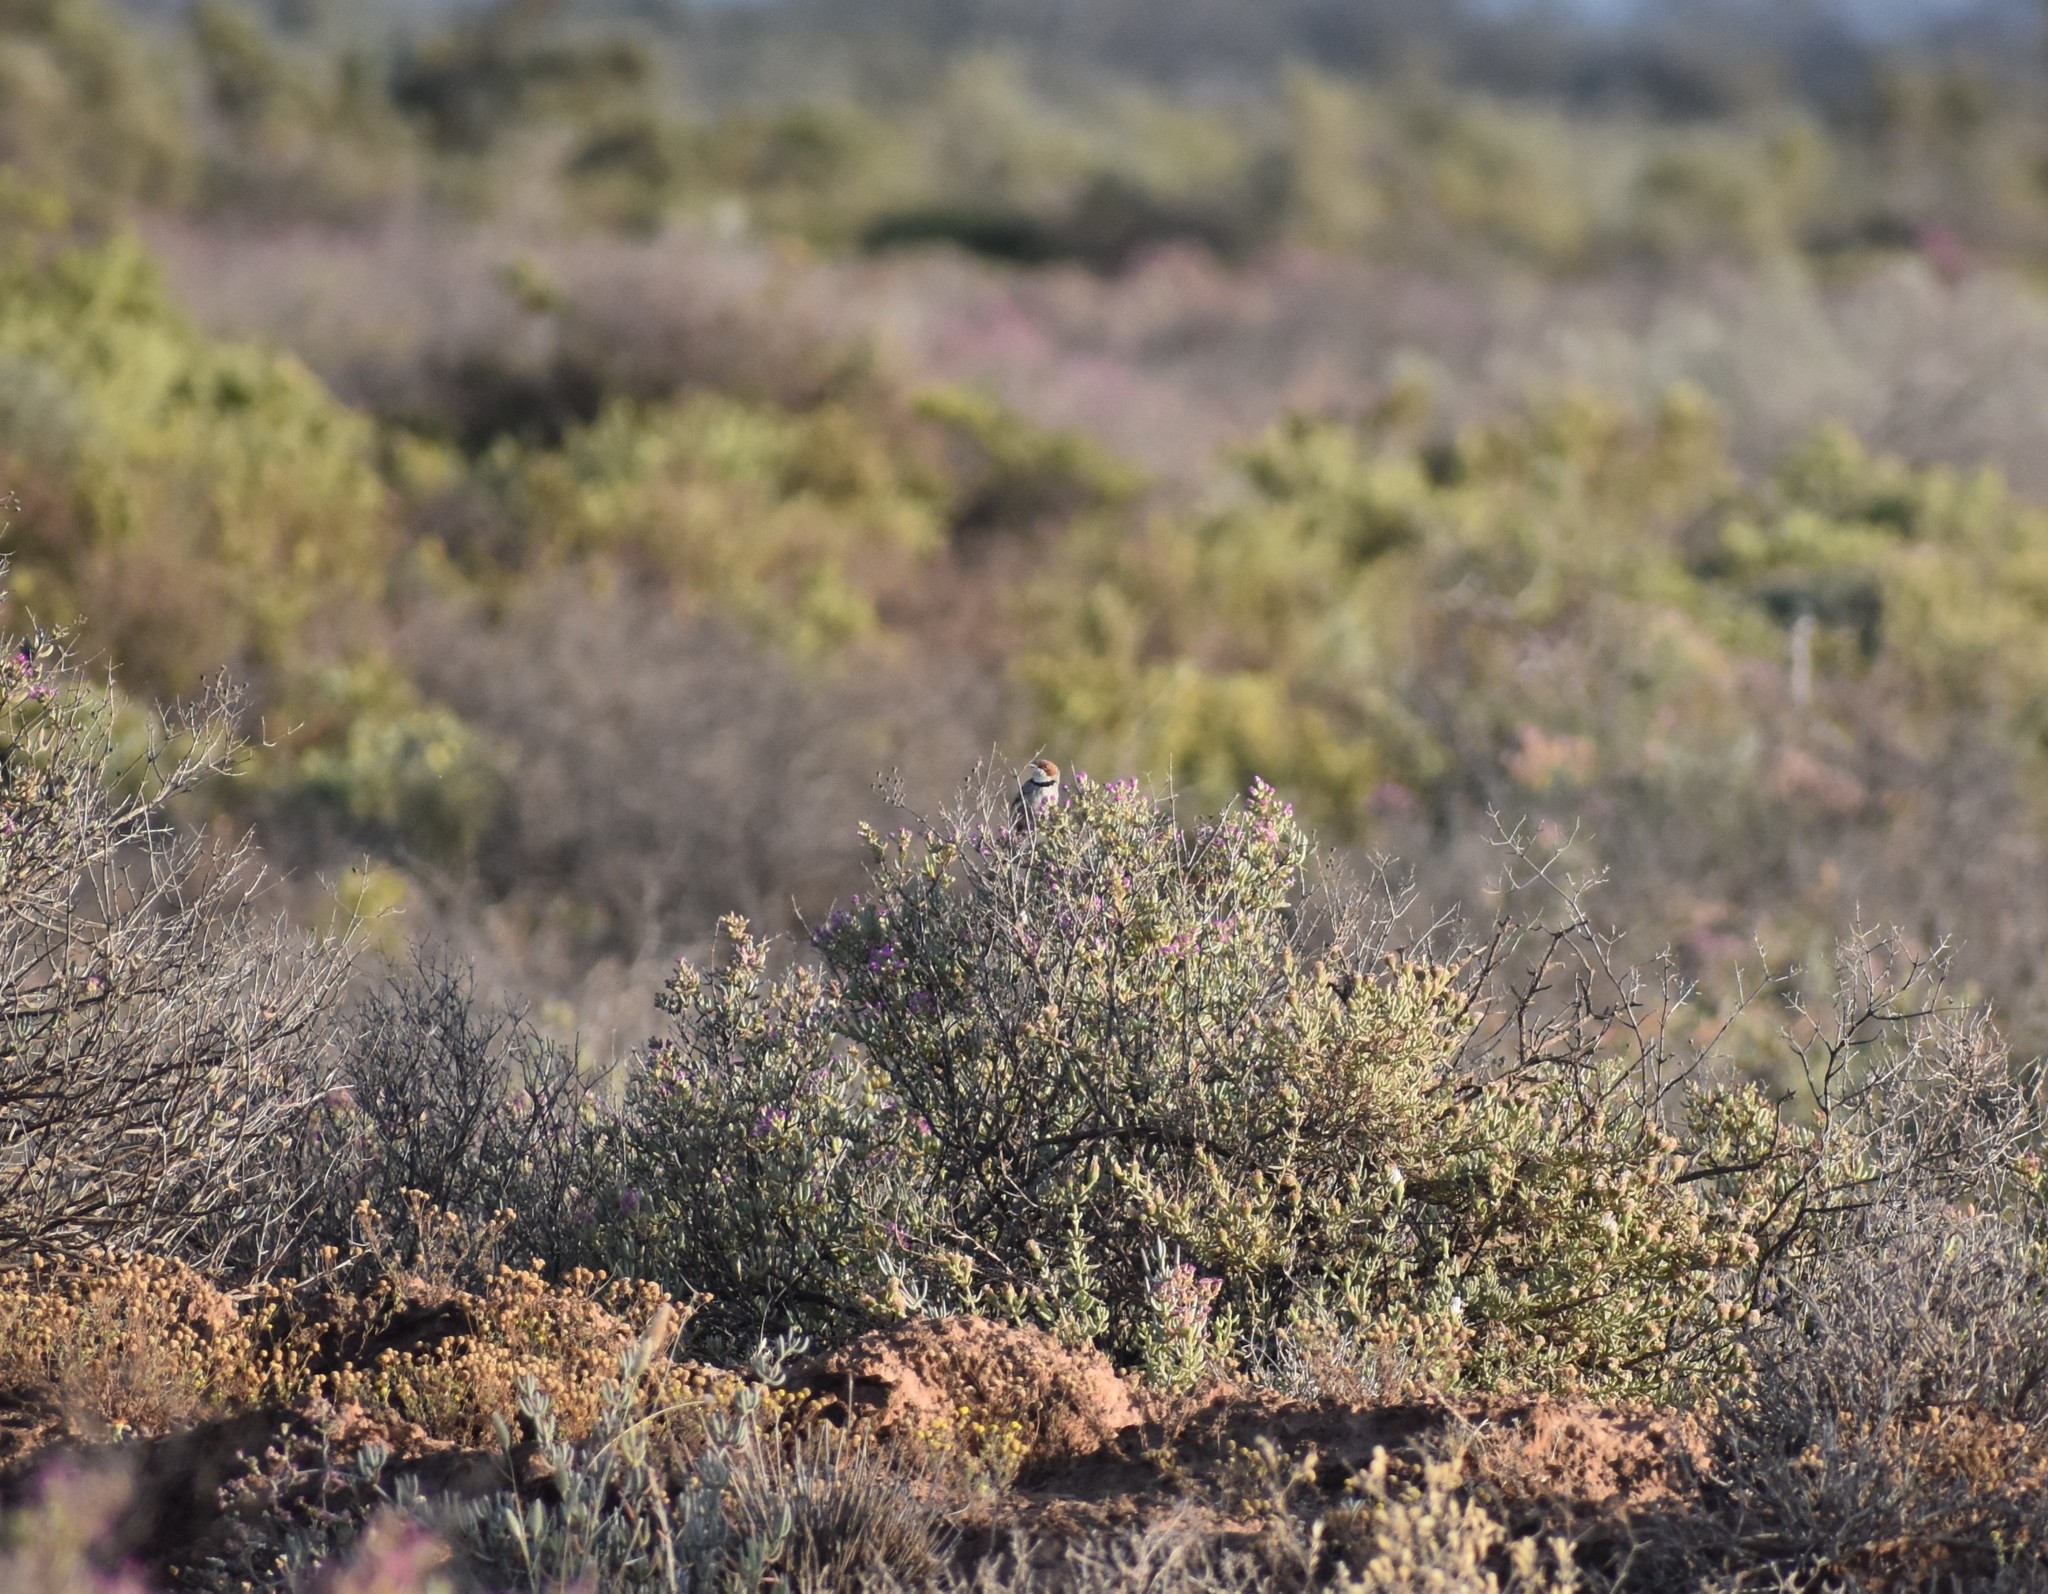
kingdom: Animalia
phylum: Chordata
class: Aves
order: Passeriformes
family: Cisticolidae
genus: Malcorus
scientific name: Malcorus pectoralis
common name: Rufous-eared warbler
